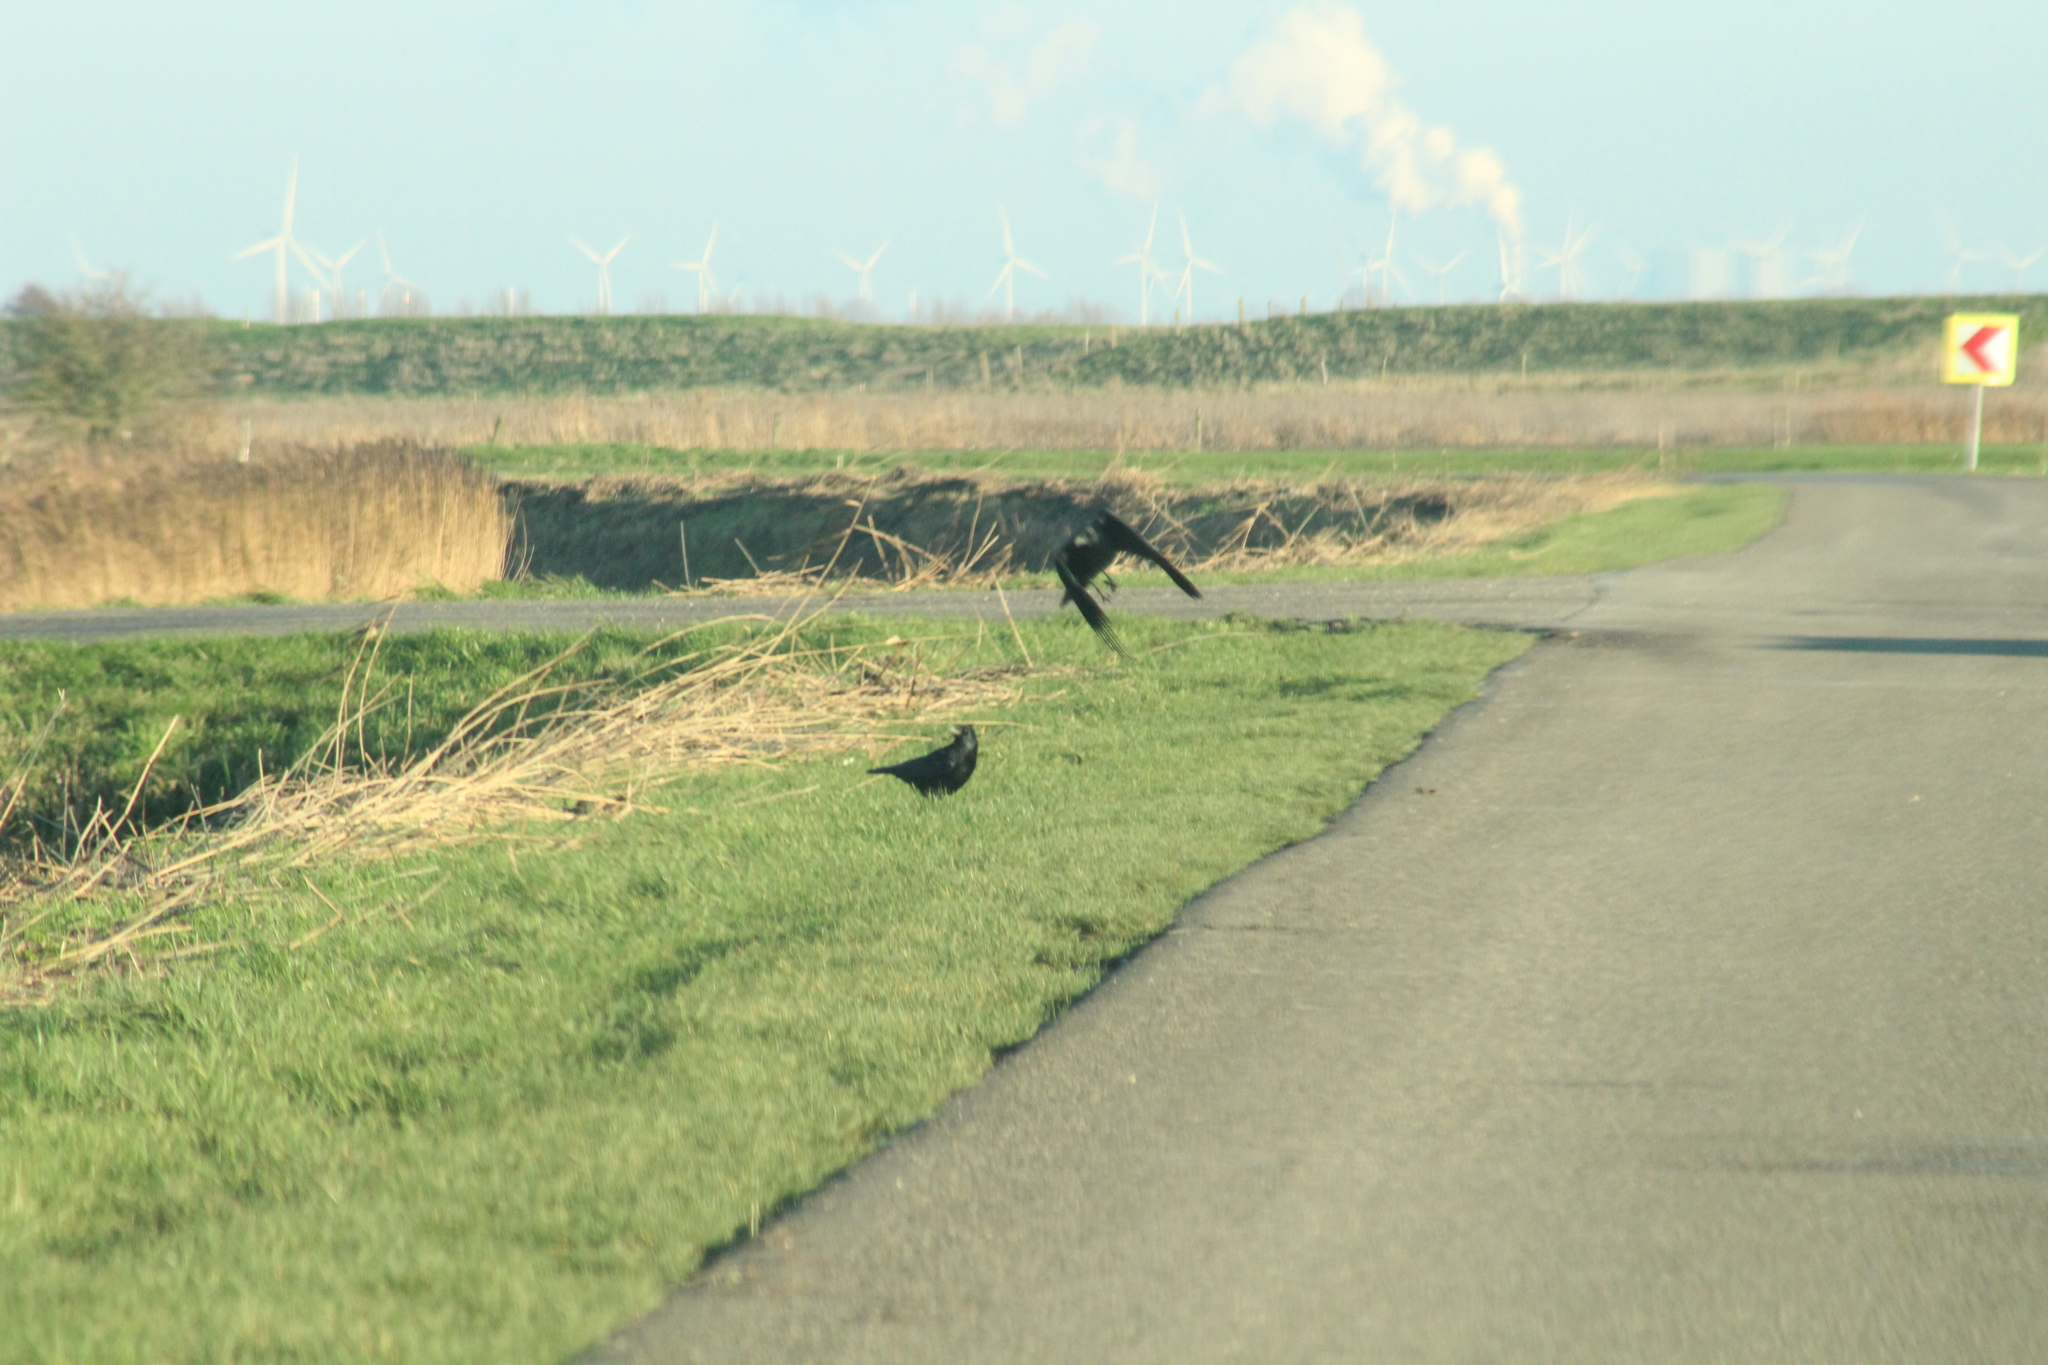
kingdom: Animalia
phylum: Chordata
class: Aves
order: Passeriformes
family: Corvidae
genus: Corvus
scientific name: Corvus corone
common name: Carrion crow
